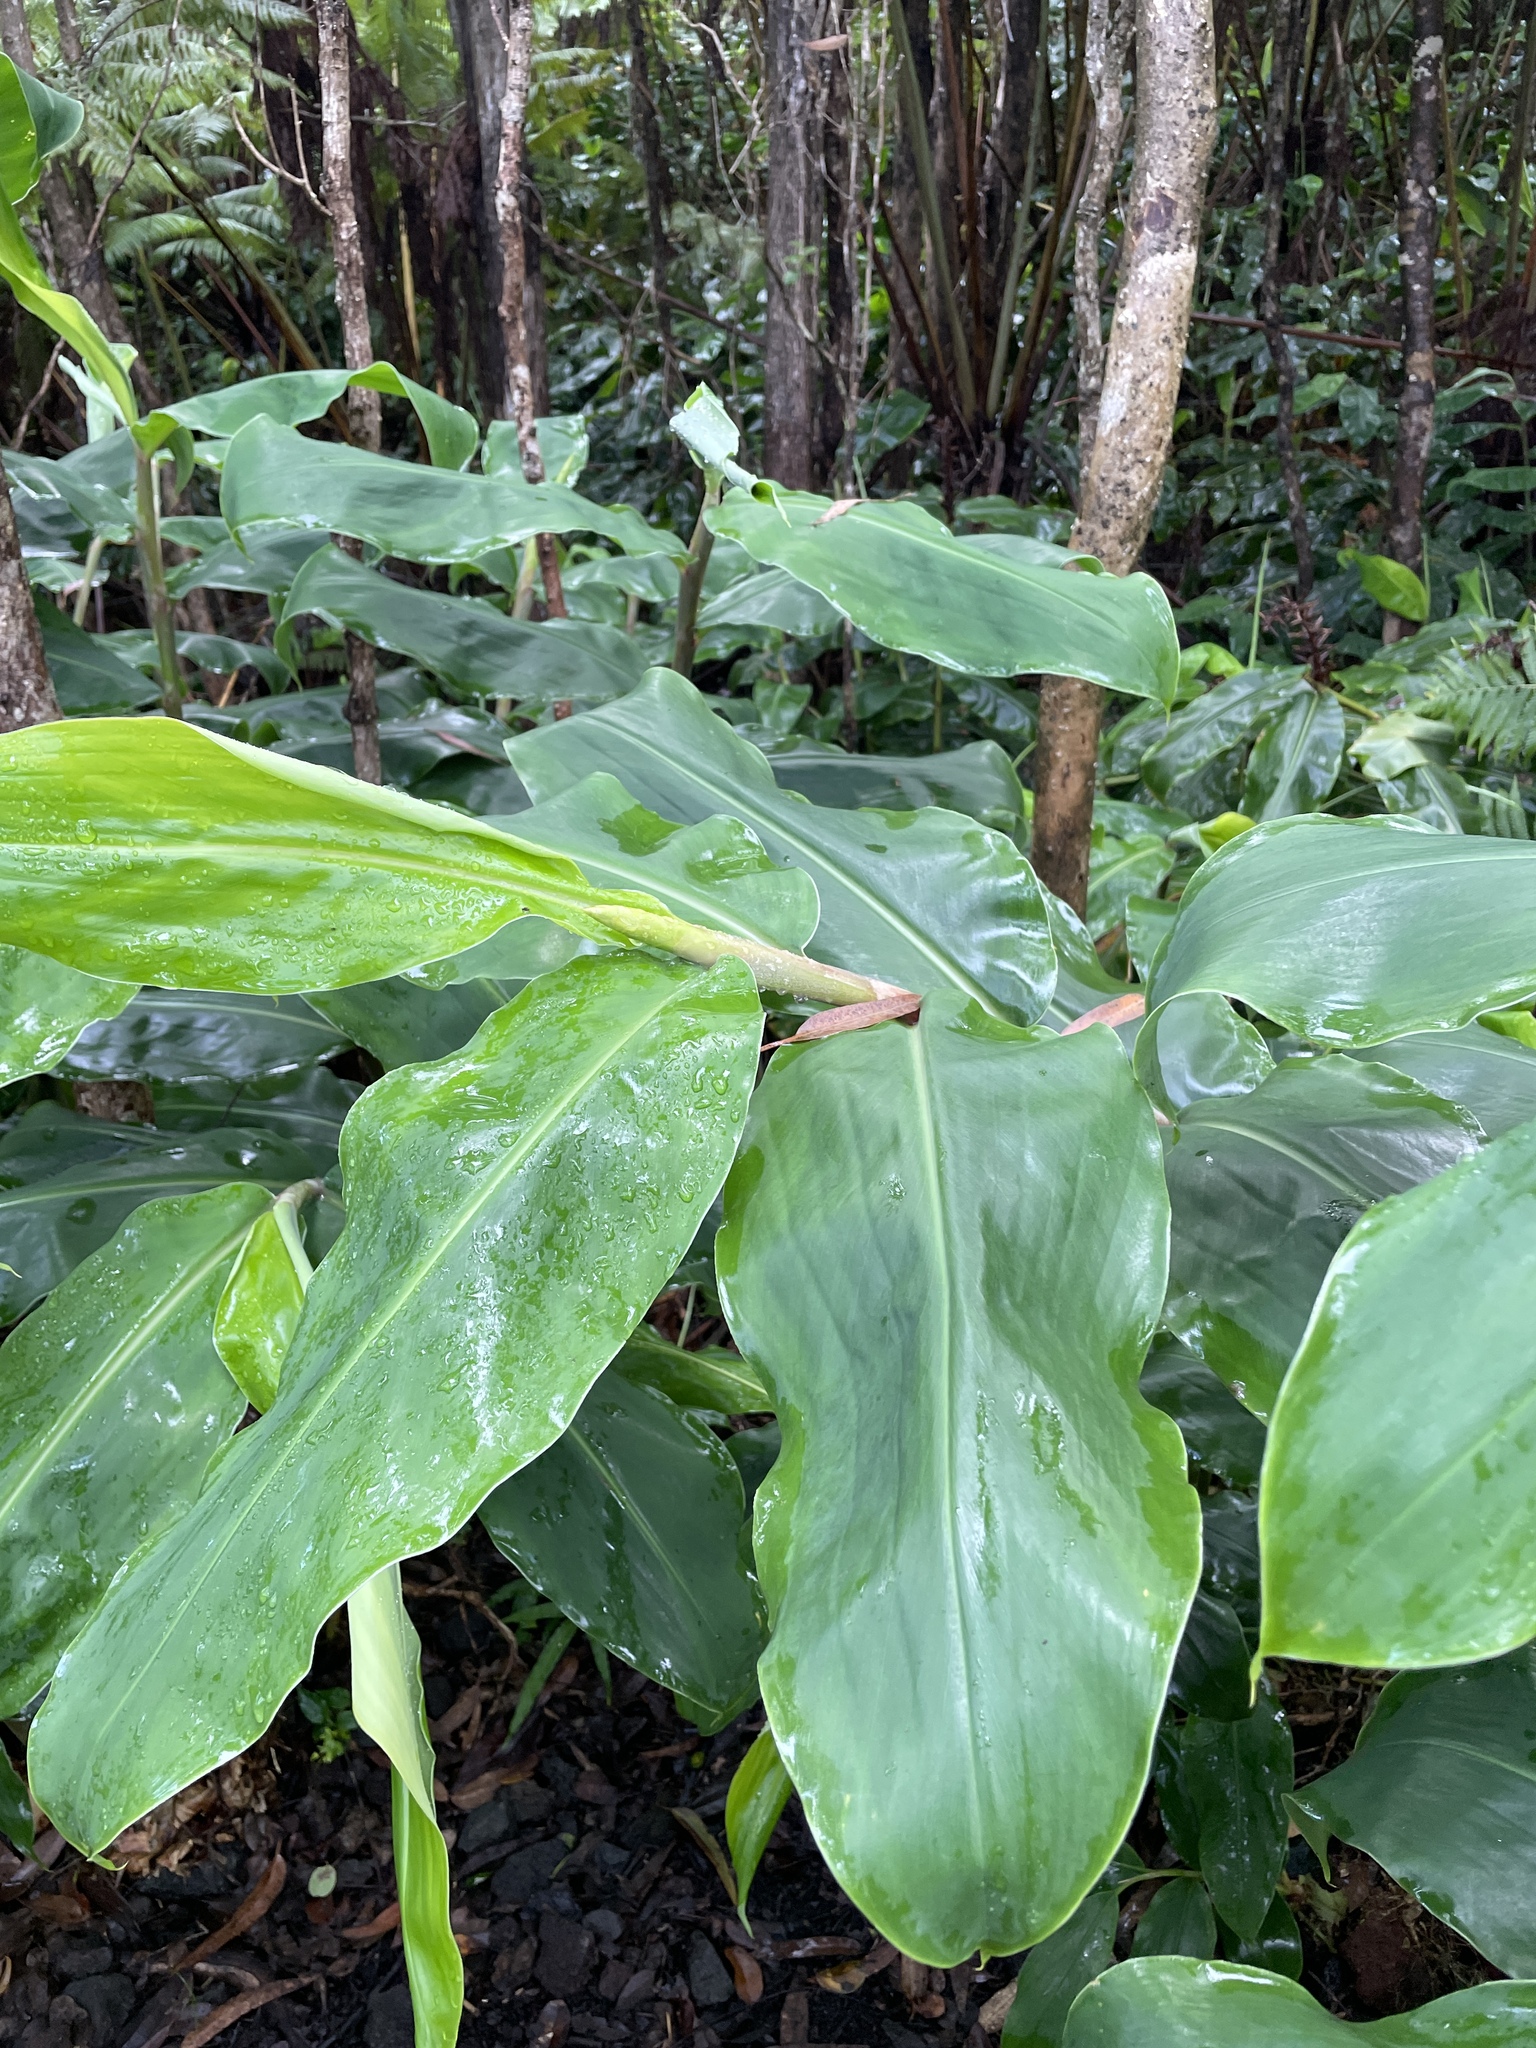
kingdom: Plantae
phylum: Tracheophyta
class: Liliopsida
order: Zingiberales
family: Zingiberaceae
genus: Hedychium
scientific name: Hedychium gardnerianum
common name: Himalayan ginger
